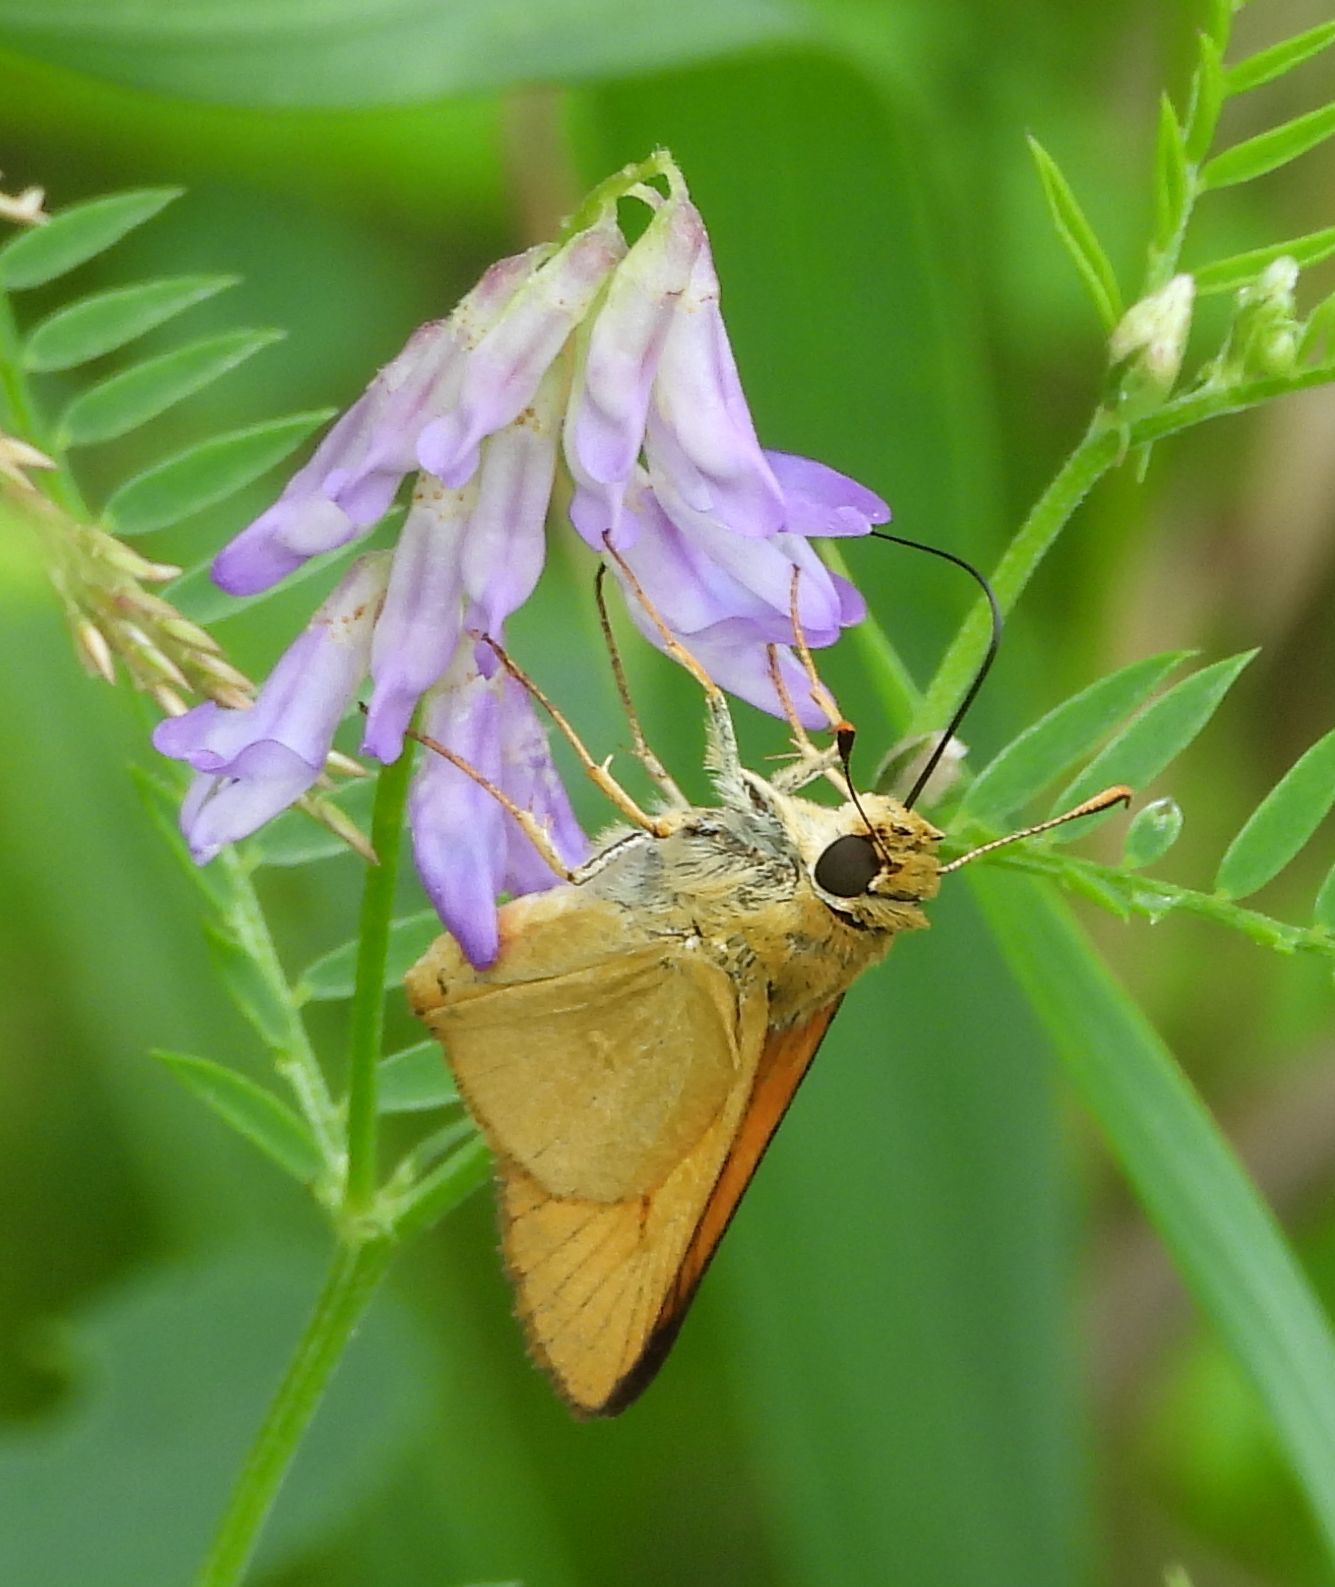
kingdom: Animalia
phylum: Arthropoda
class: Insecta
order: Lepidoptera
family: Hesperiidae
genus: Atrytone
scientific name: Atrytone delaware
